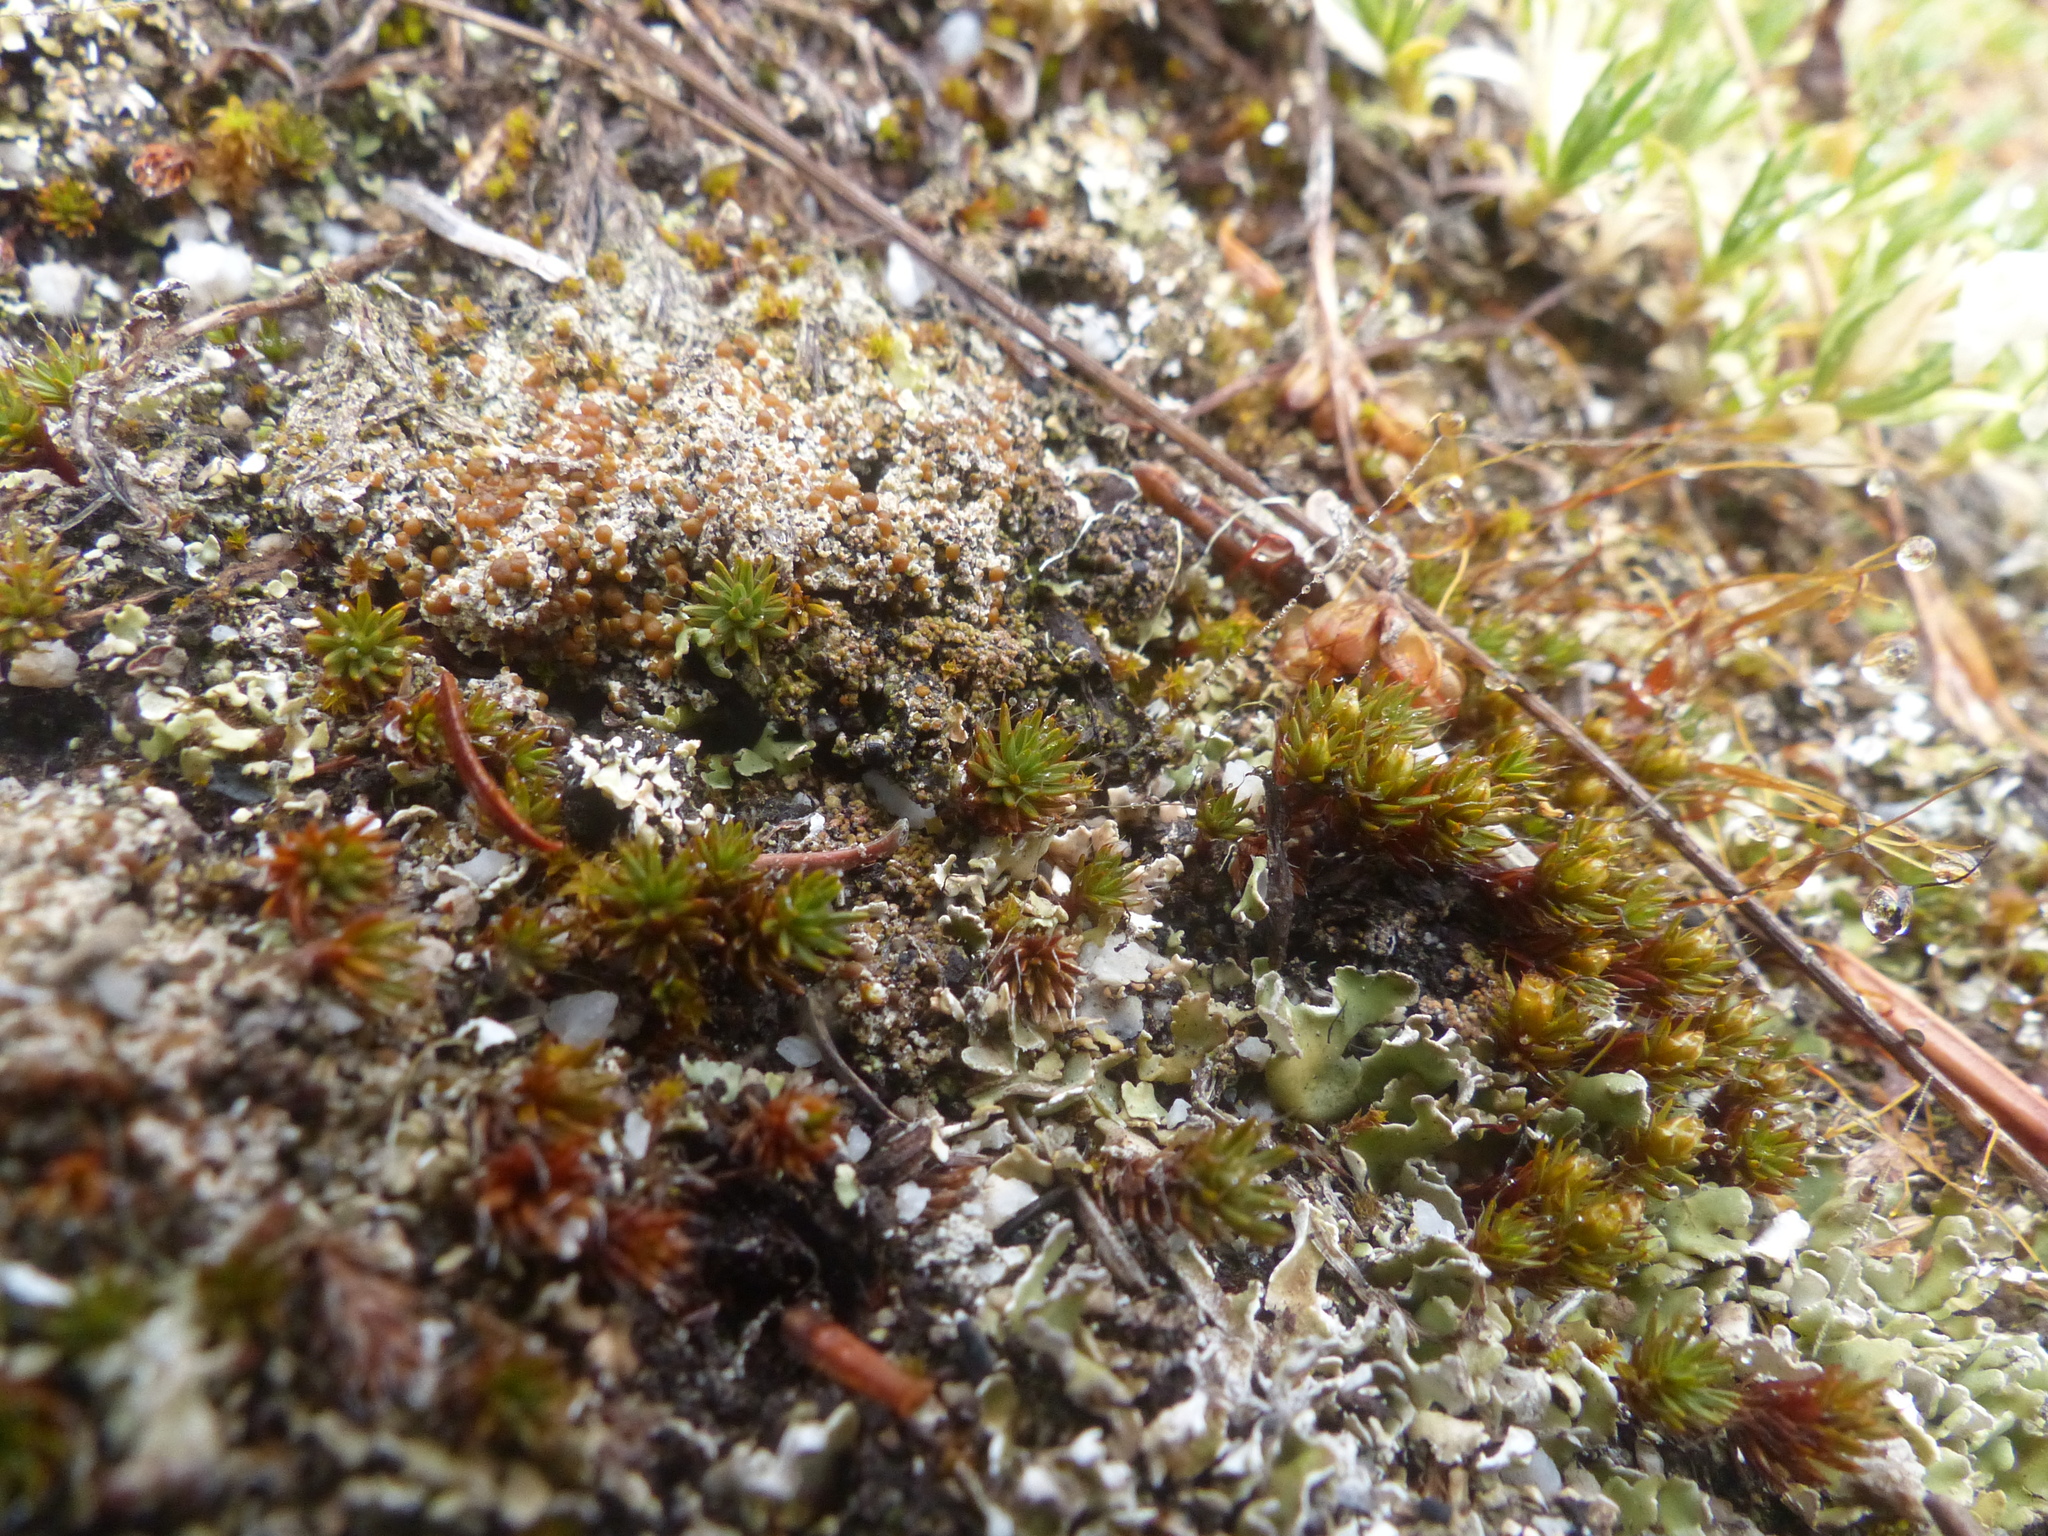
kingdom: Plantae
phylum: Bryophyta
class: Polytrichopsida
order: Polytrichales
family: Polytrichaceae
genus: Polytrichum
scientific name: Polytrichum piliferum
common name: Bristly haircap
